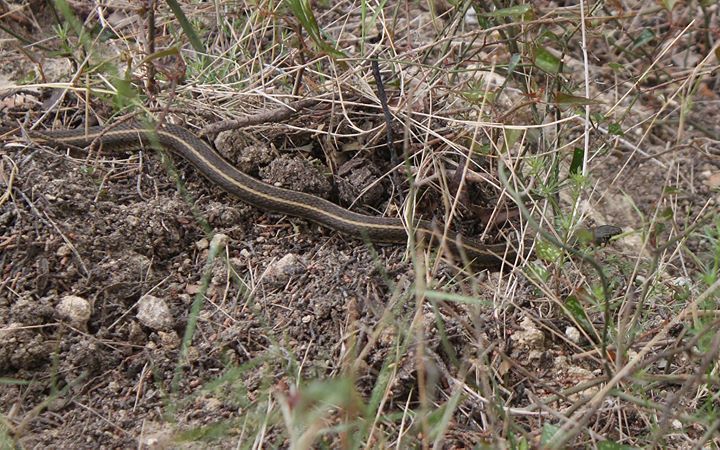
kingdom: Animalia
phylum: Chordata
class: Squamata
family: Colubridae
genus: Natrix
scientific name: Natrix natrix
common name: Grass snake
